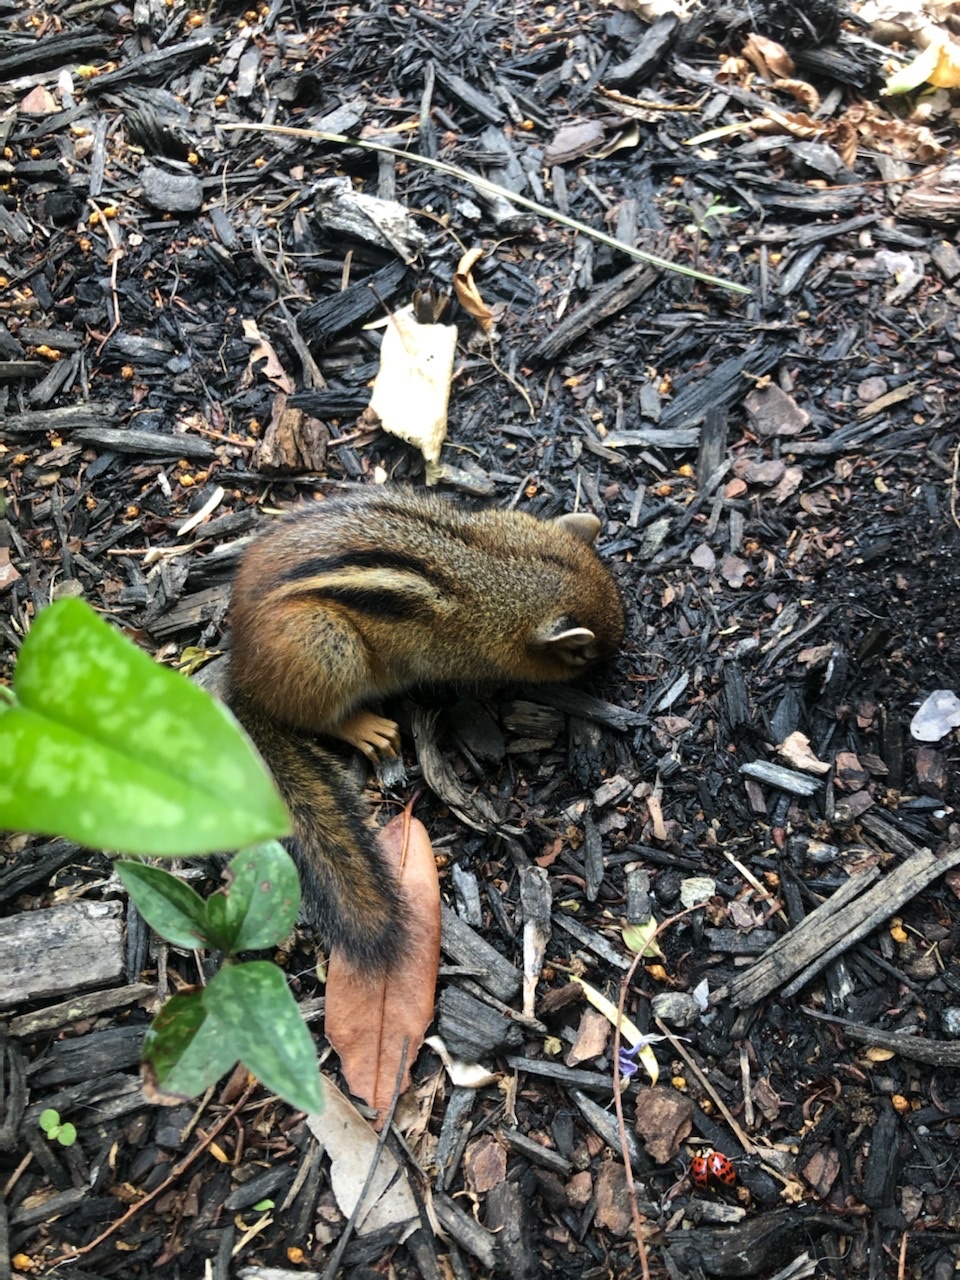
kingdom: Animalia
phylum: Chordata
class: Mammalia
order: Rodentia
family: Sciuridae
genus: Tamias
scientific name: Tamias striatus
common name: Eastern chipmunk
